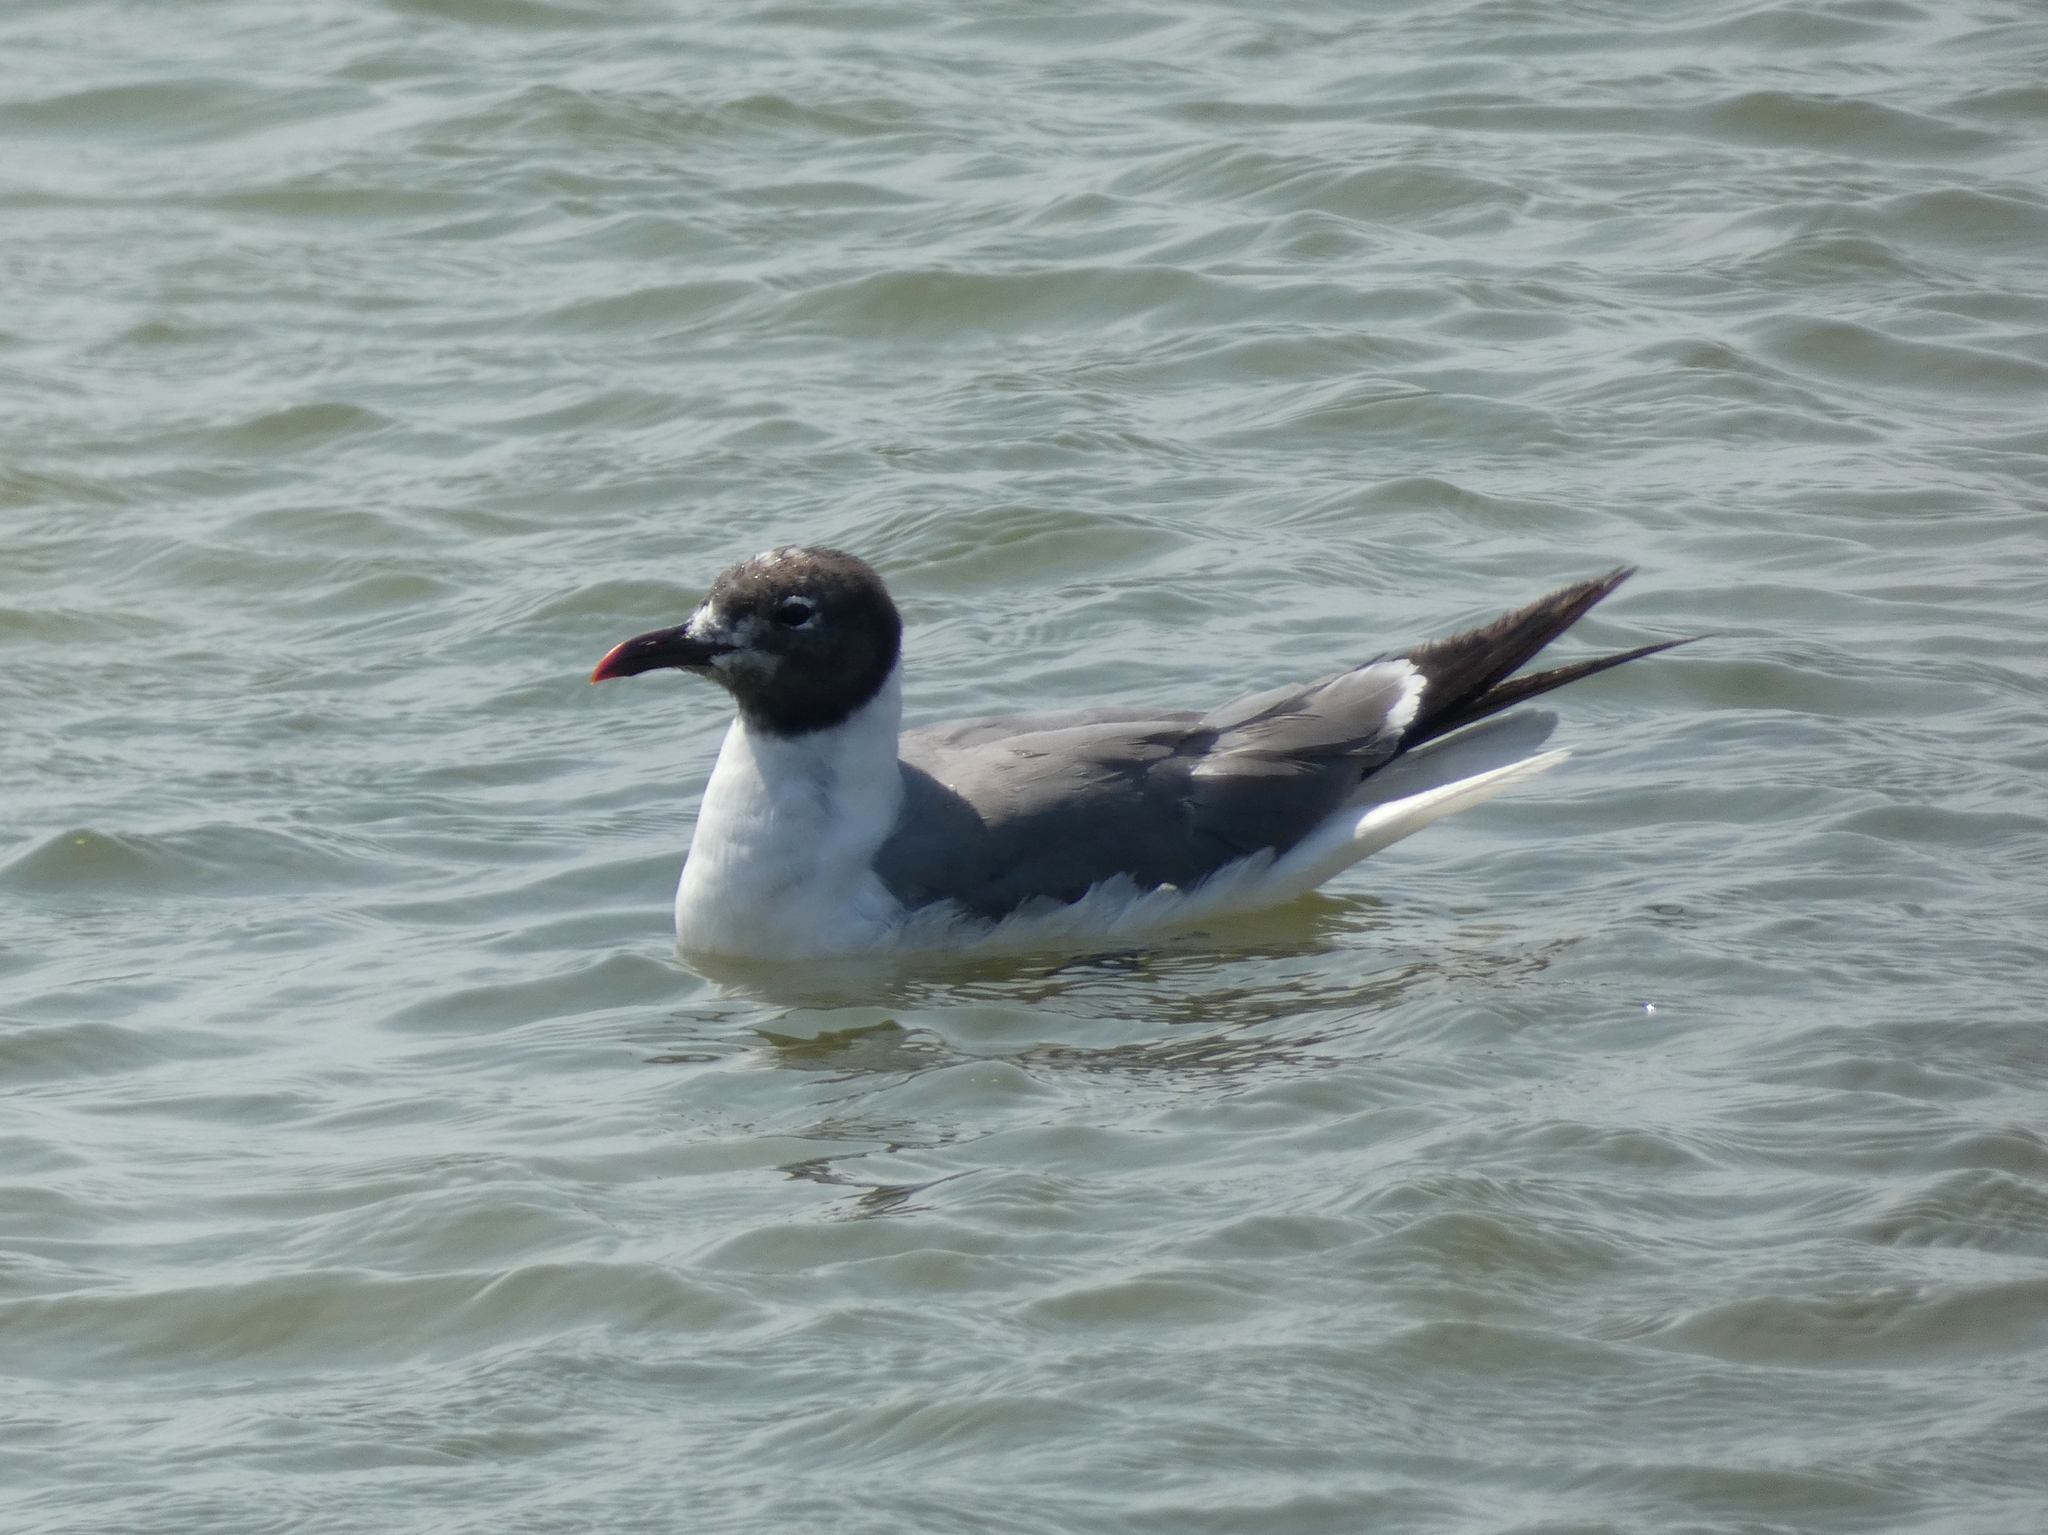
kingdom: Animalia
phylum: Chordata
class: Aves
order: Charadriiformes
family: Laridae
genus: Leucophaeus
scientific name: Leucophaeus atricilla
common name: Laughing gull
